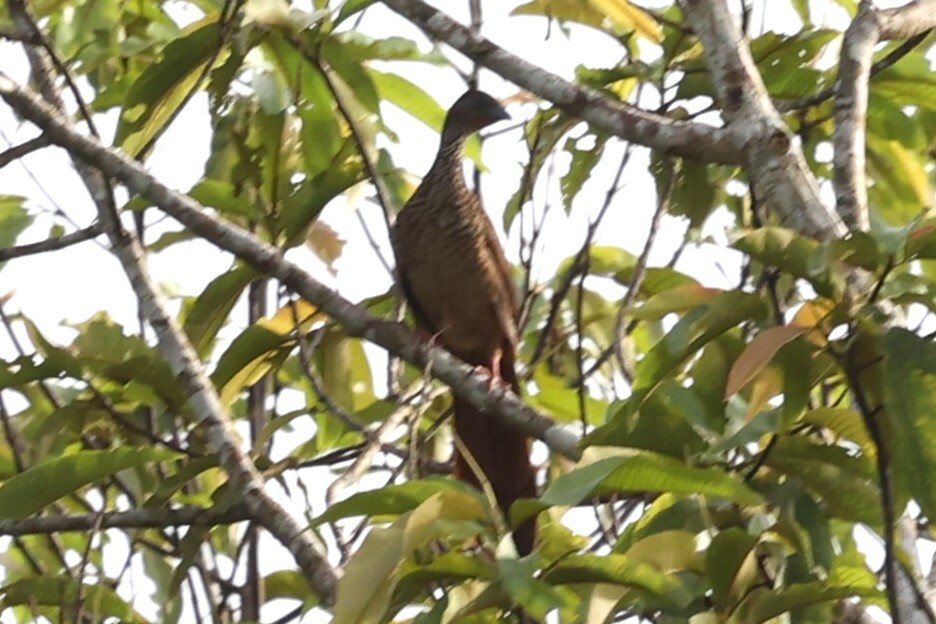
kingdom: Animalia
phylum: Chordata
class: Aves
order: Galliformes
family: Cracidae
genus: Ortalis
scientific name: Ortalis guttata
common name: Speckled chachalaca
